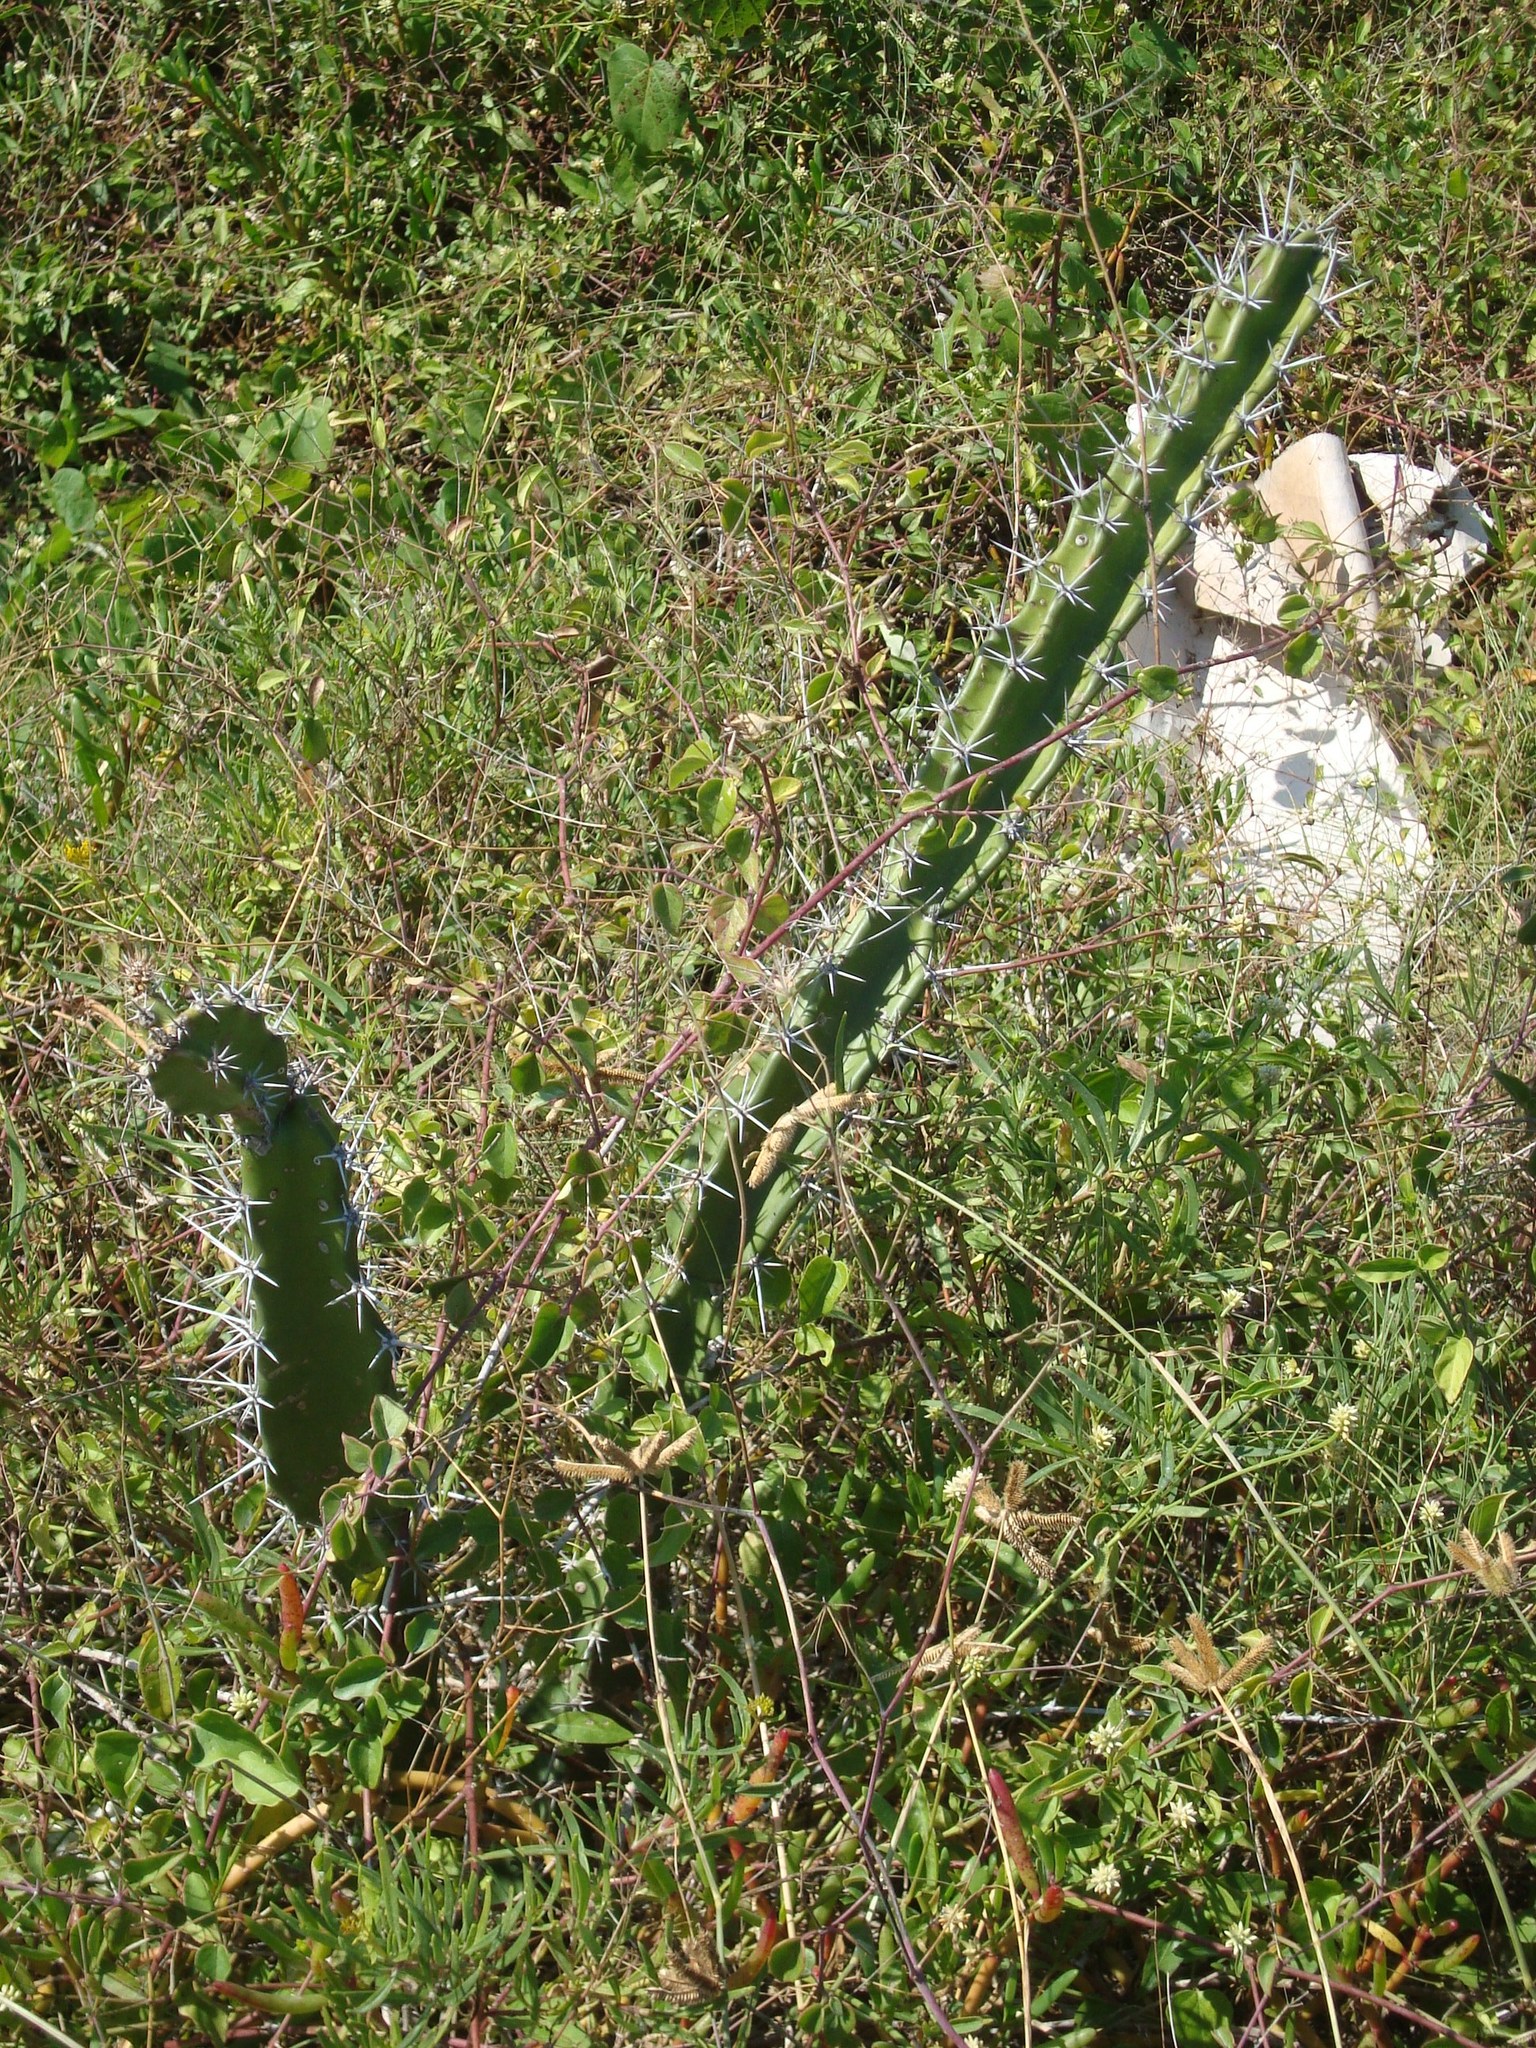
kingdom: Plantae
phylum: Tracheophyta
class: Magnoliopsida
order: Caryophyllales
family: Cactaceae
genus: Acanthocereus
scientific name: Acanthocereus tetragonus
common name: Triangle cactus
